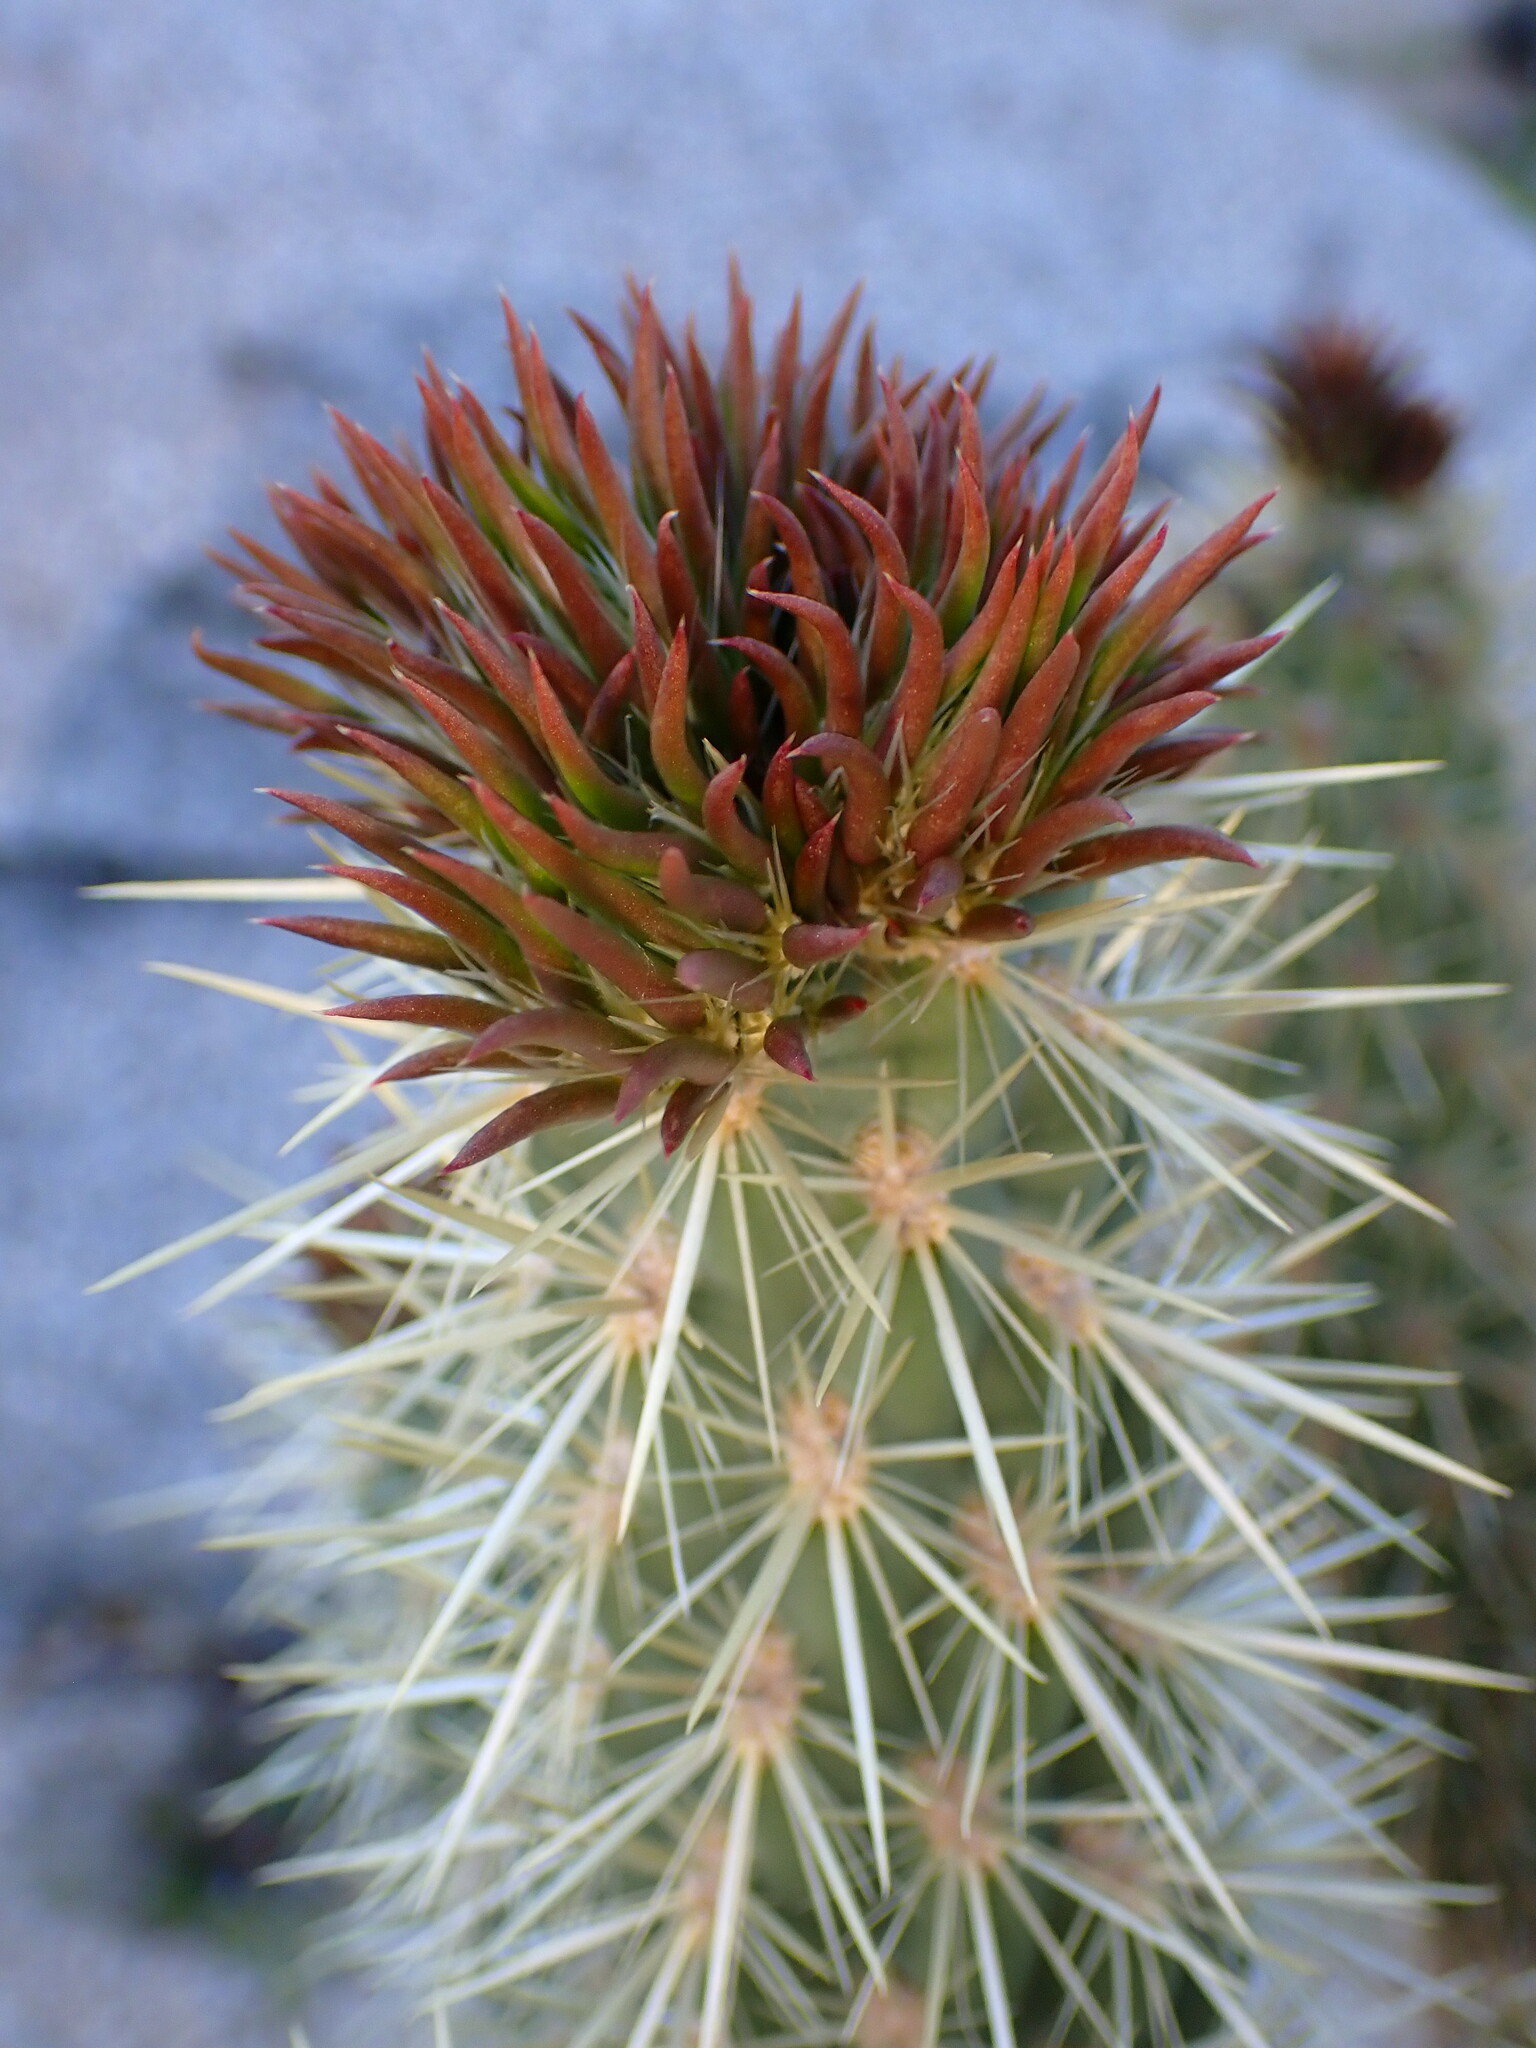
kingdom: Plantae
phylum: Tracheophyta
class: Magnoliopsida
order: Caryophyllales
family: Cactaceae
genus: Cylindropuntia
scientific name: Cylindropuntia ganderi
